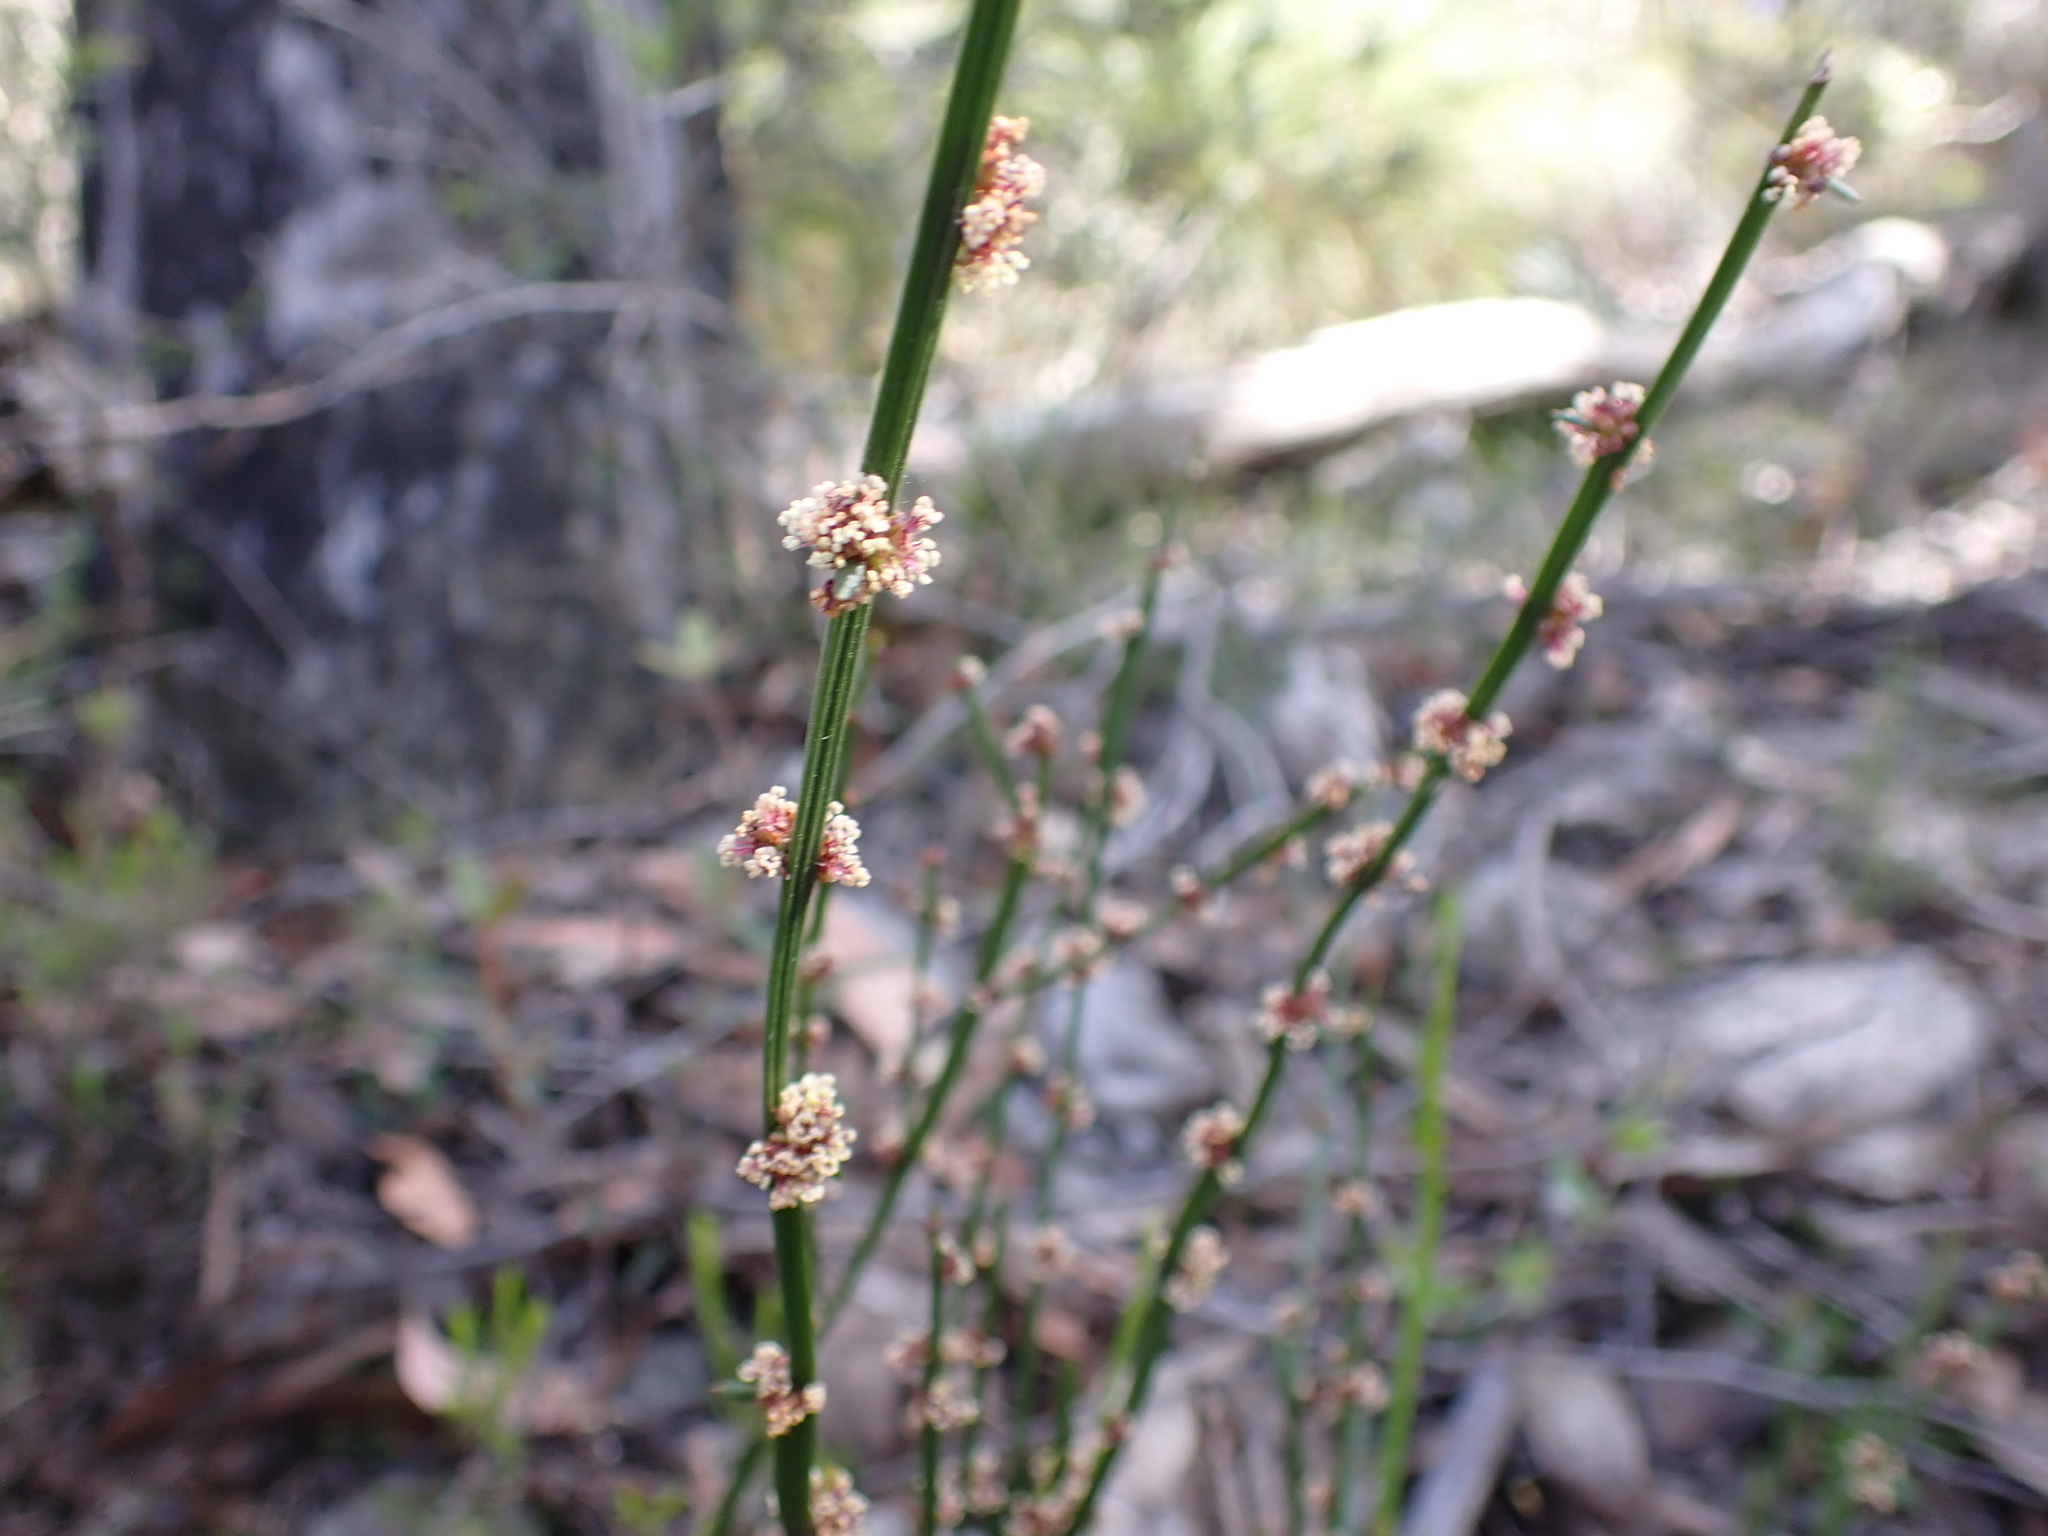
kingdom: Plantae
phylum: Tracheophyta
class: Magnoliopsida
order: Malpighiales
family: Euphorbiaceae
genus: Amperea
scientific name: Amperea xiphoclada
